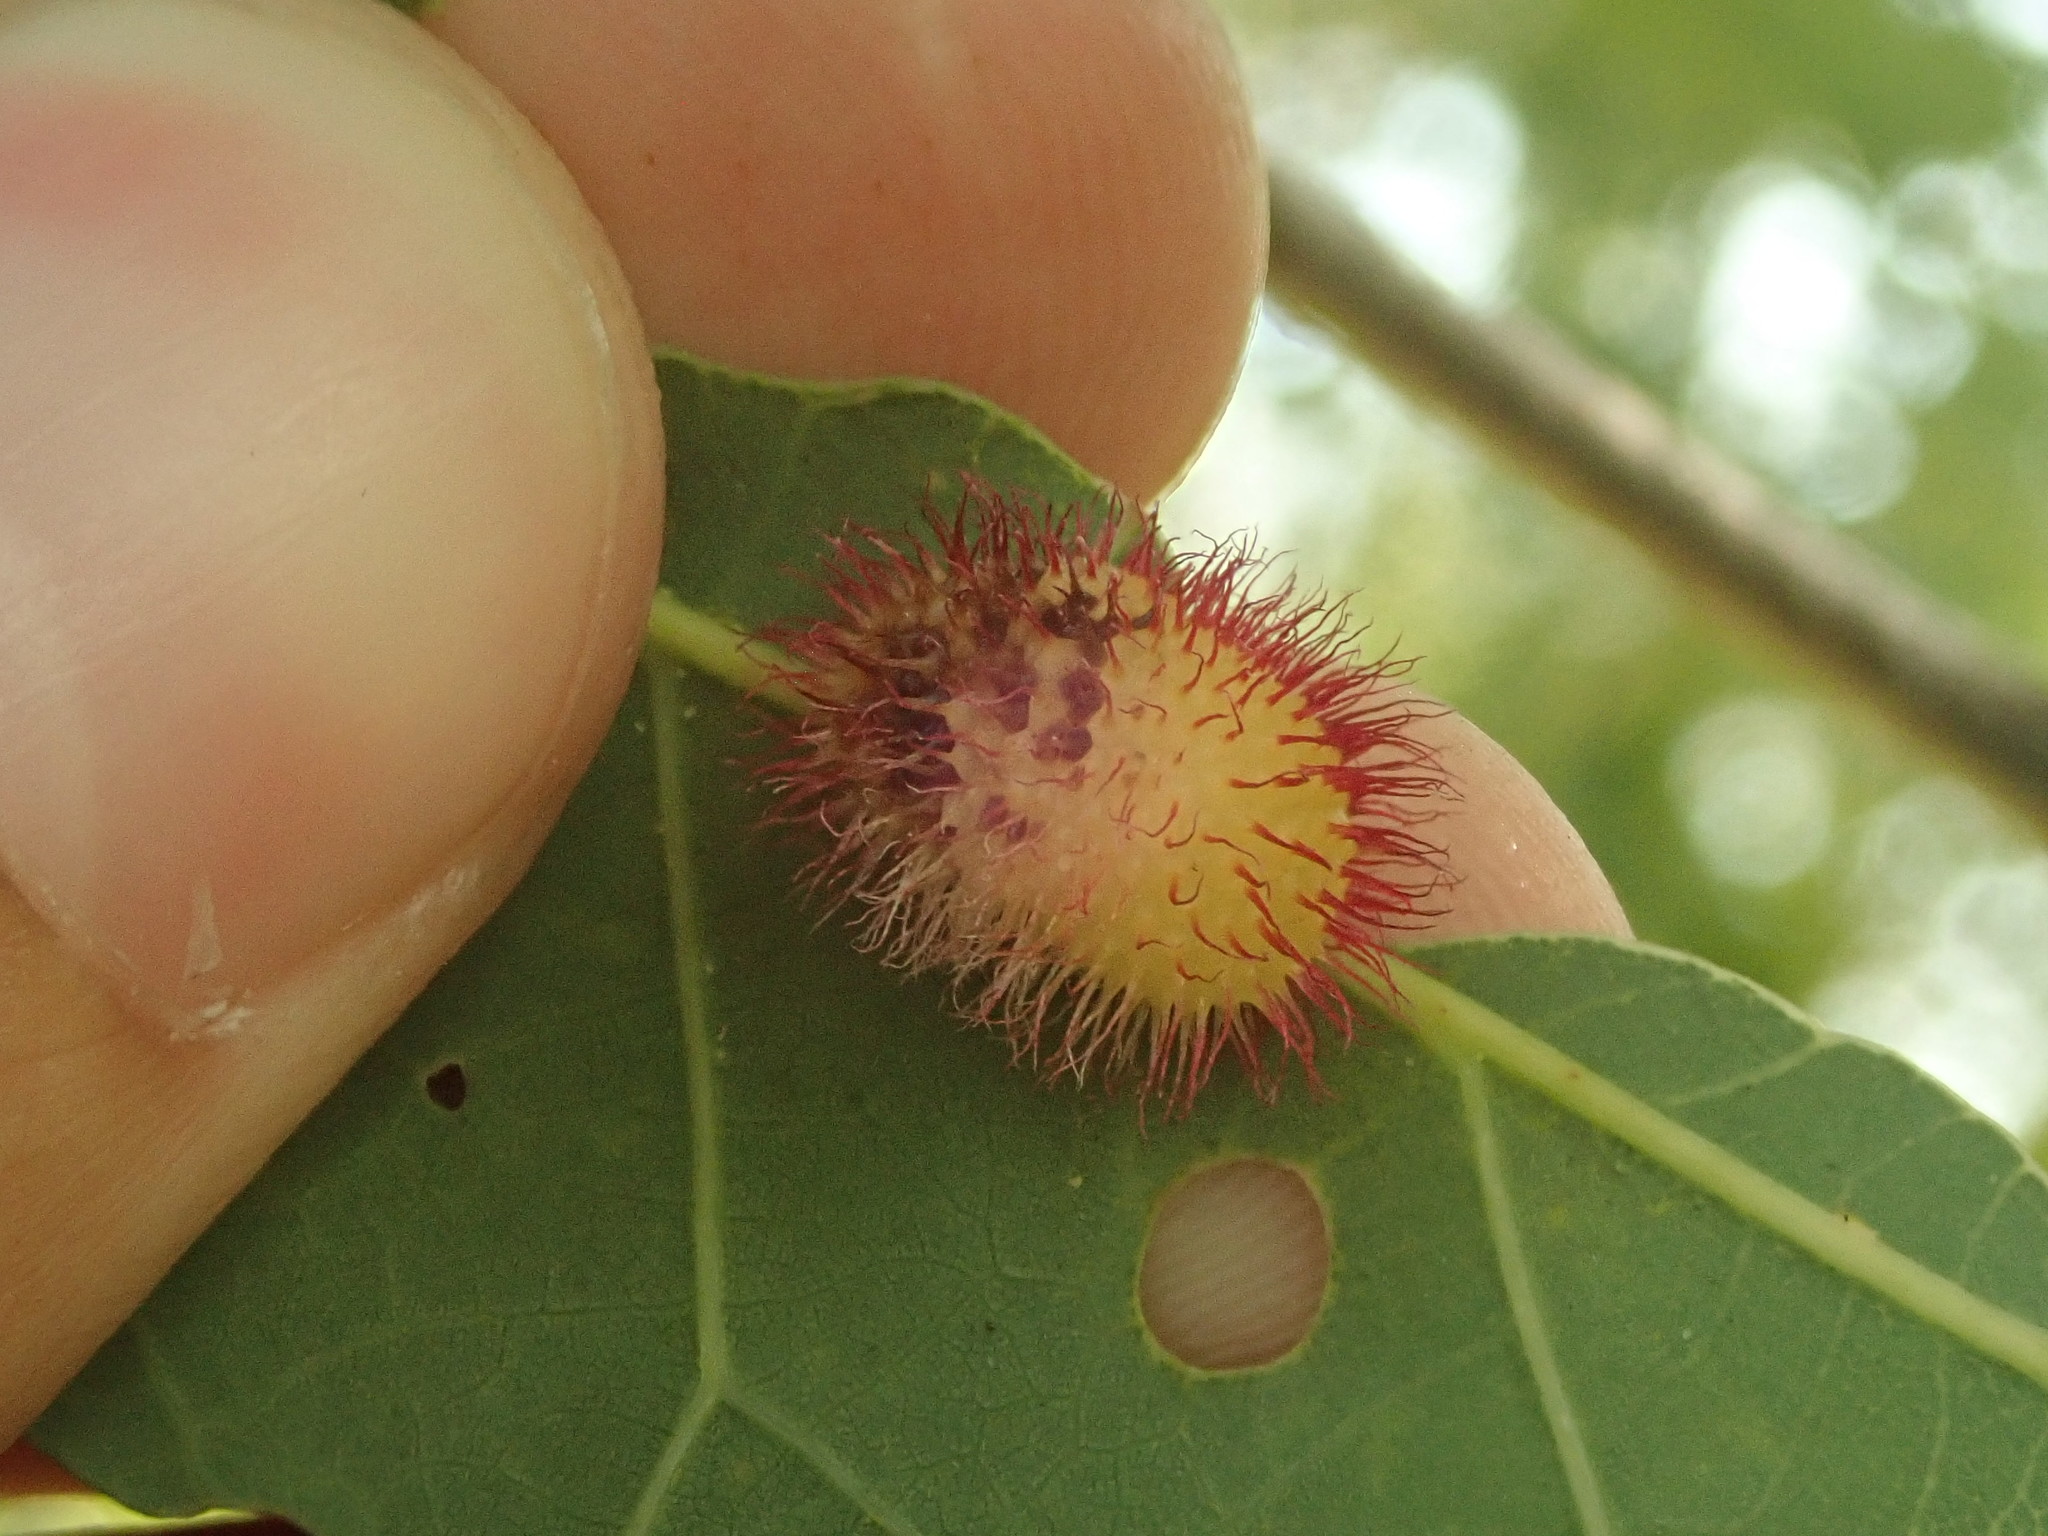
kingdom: Animalia
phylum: Arthropoda
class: Insecta
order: Hymenoptera
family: Cynipidae
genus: Acraspis
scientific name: Acraspis erinacei
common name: Hedgehog gall wasp
